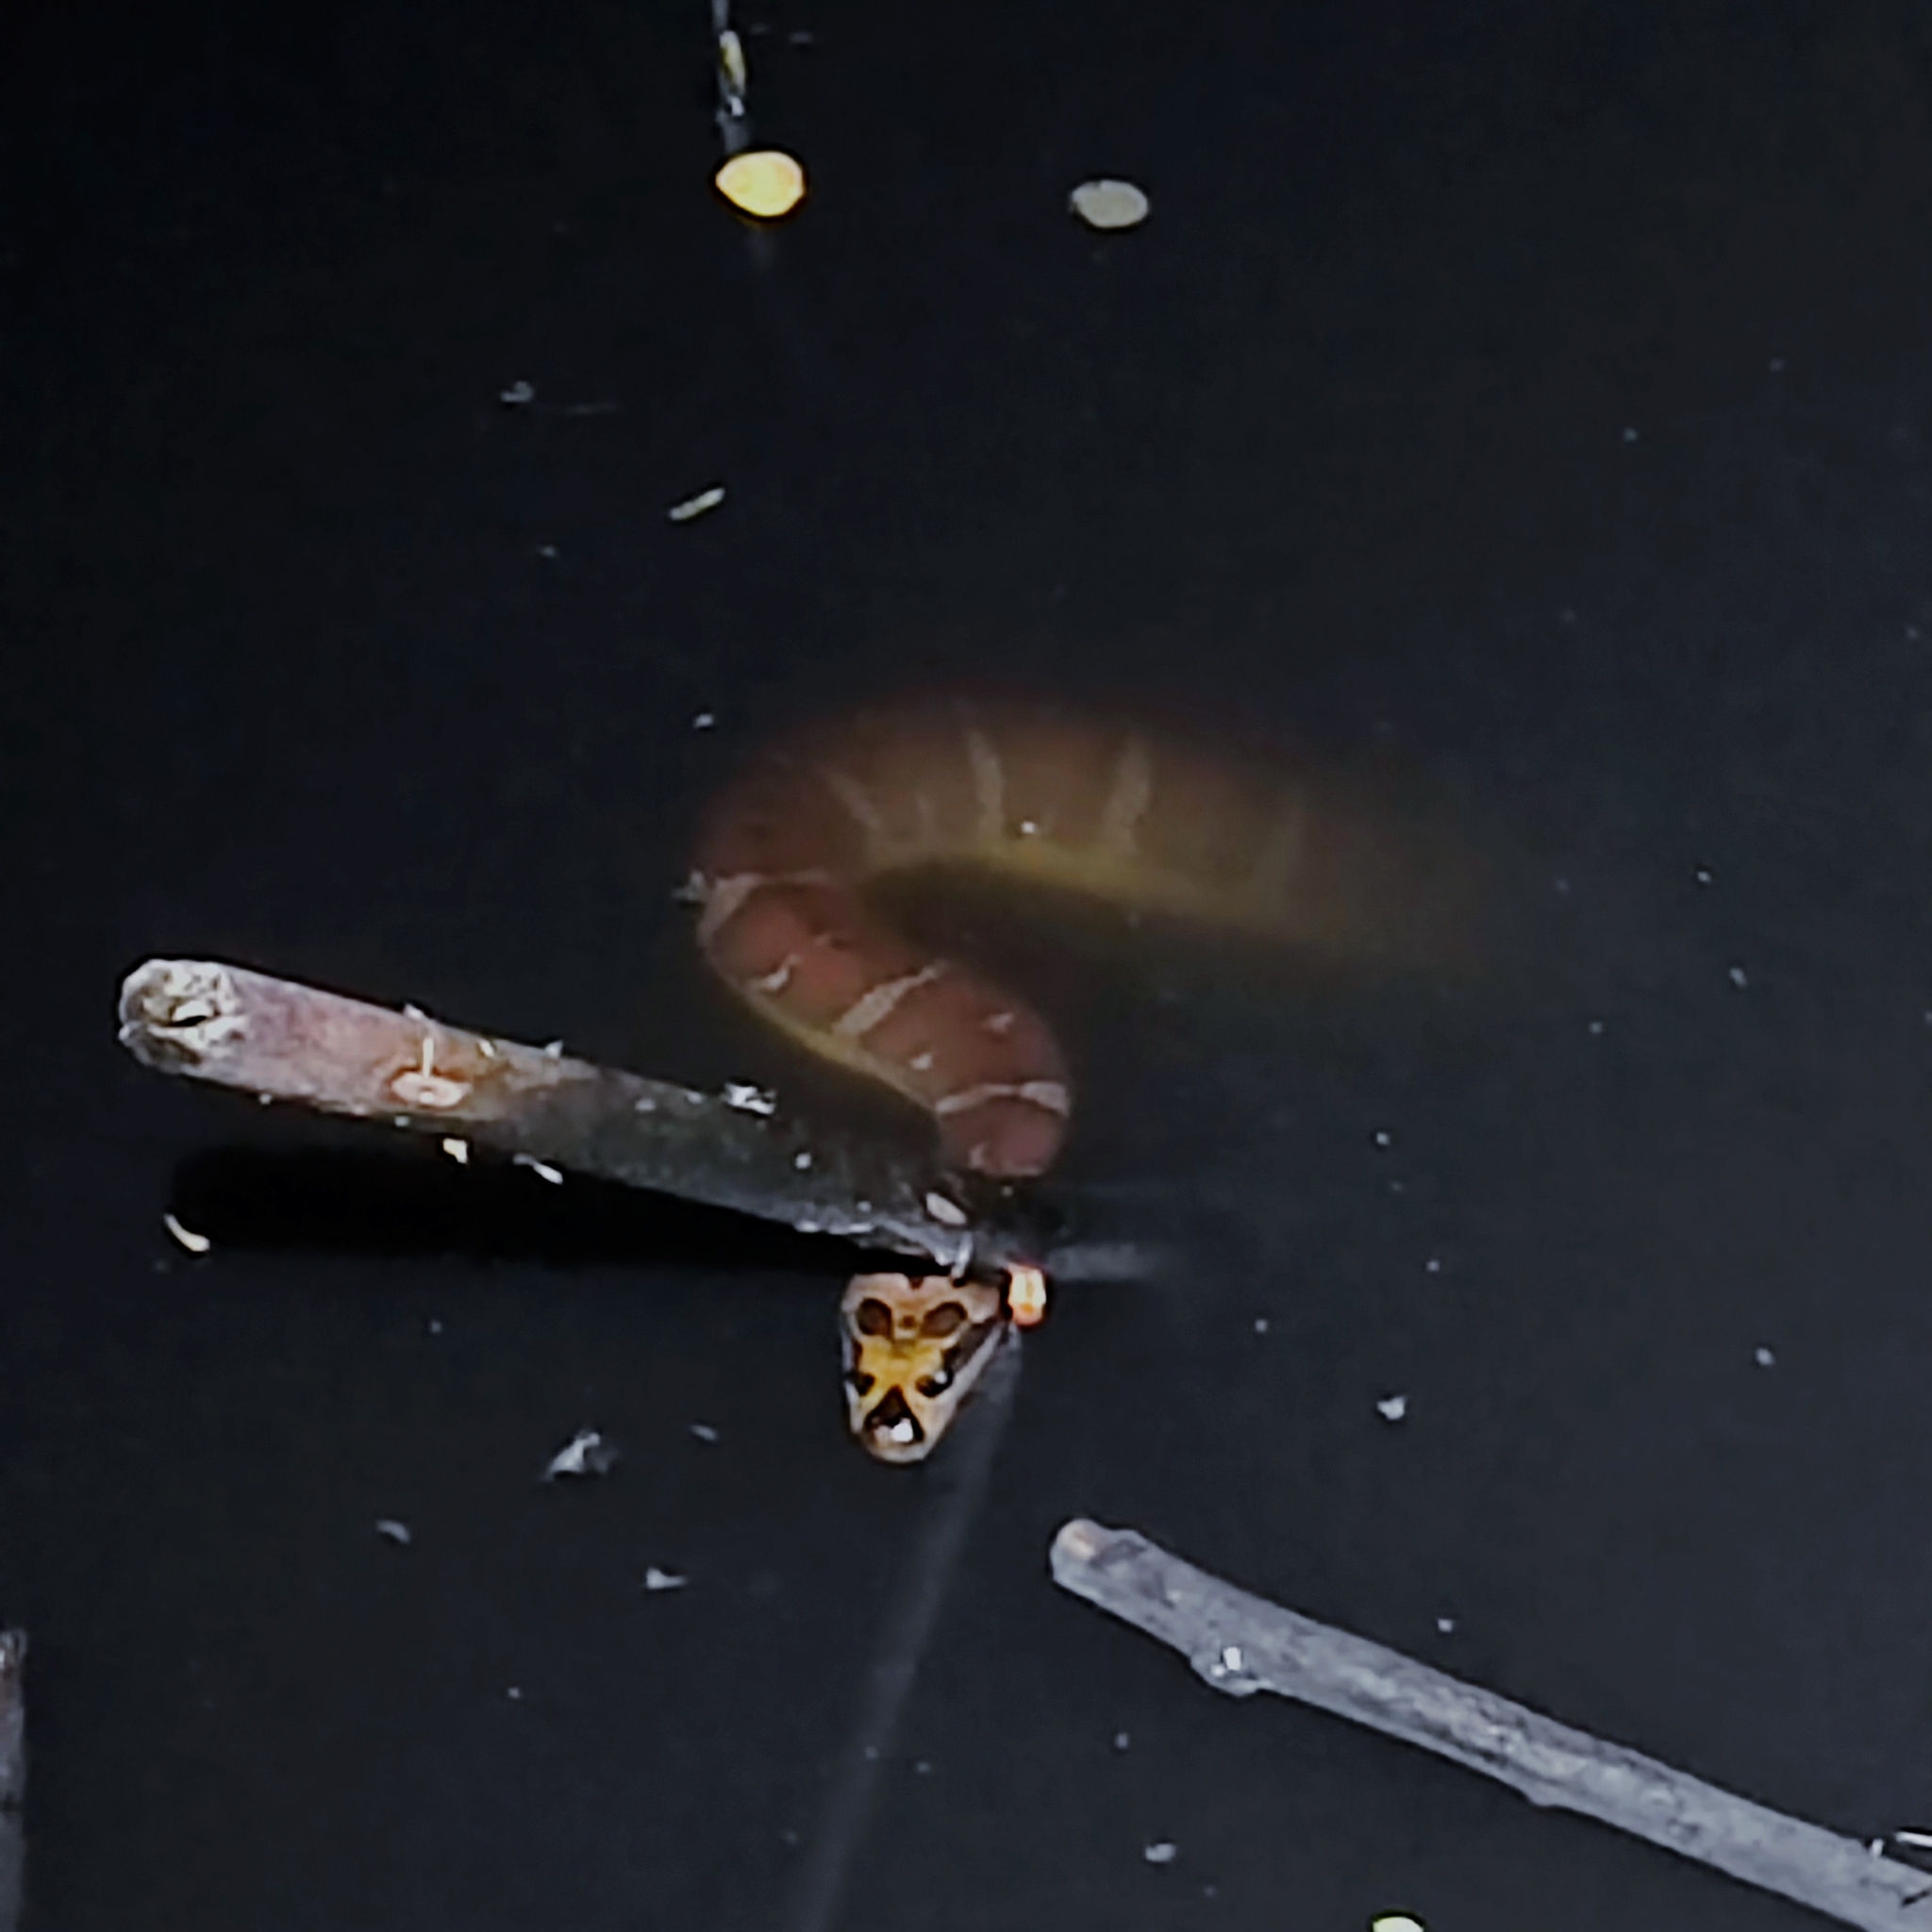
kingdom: Animalia
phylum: Chordata
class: Squamata
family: Homalopsidae
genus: Homalopsis
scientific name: Homalopsis mereljcoxi
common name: Jack’s water snake
